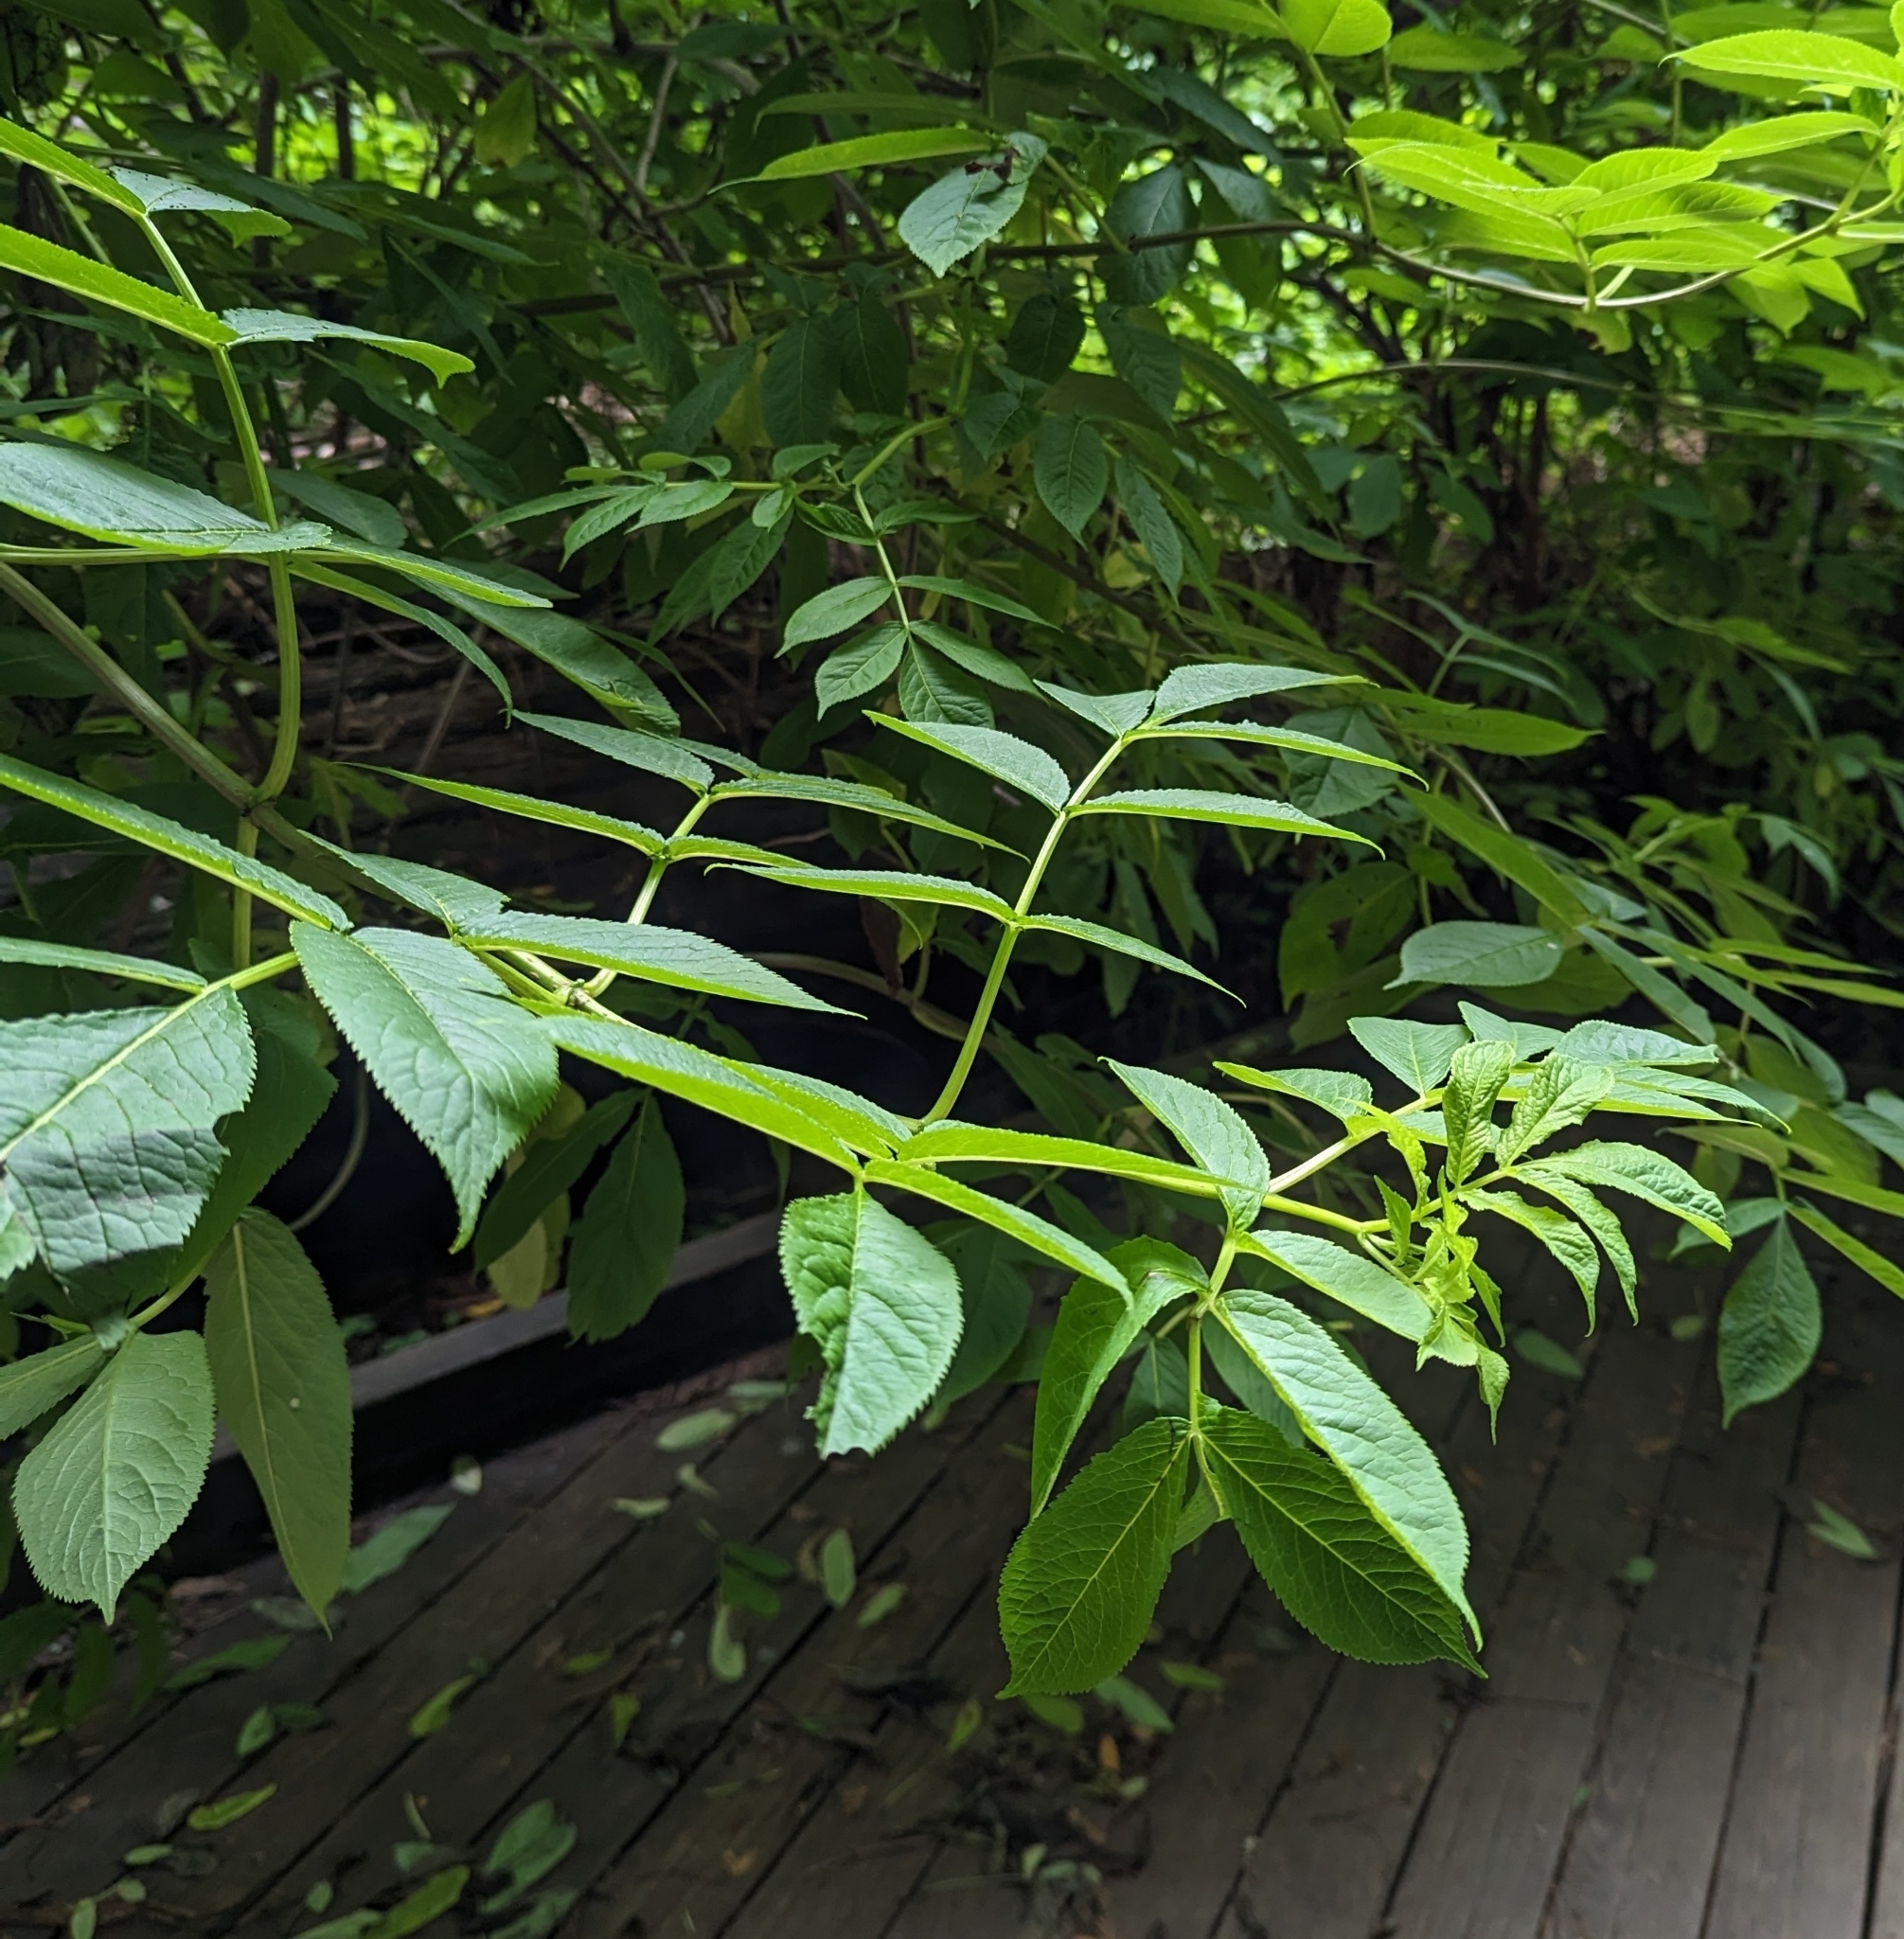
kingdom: Plantae
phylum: Tracheophyta
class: Magnoliopsida
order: Dipsacales
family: Viburnaceae
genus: Sambucus
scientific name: Sambucus racemosa
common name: Red-berried elder
